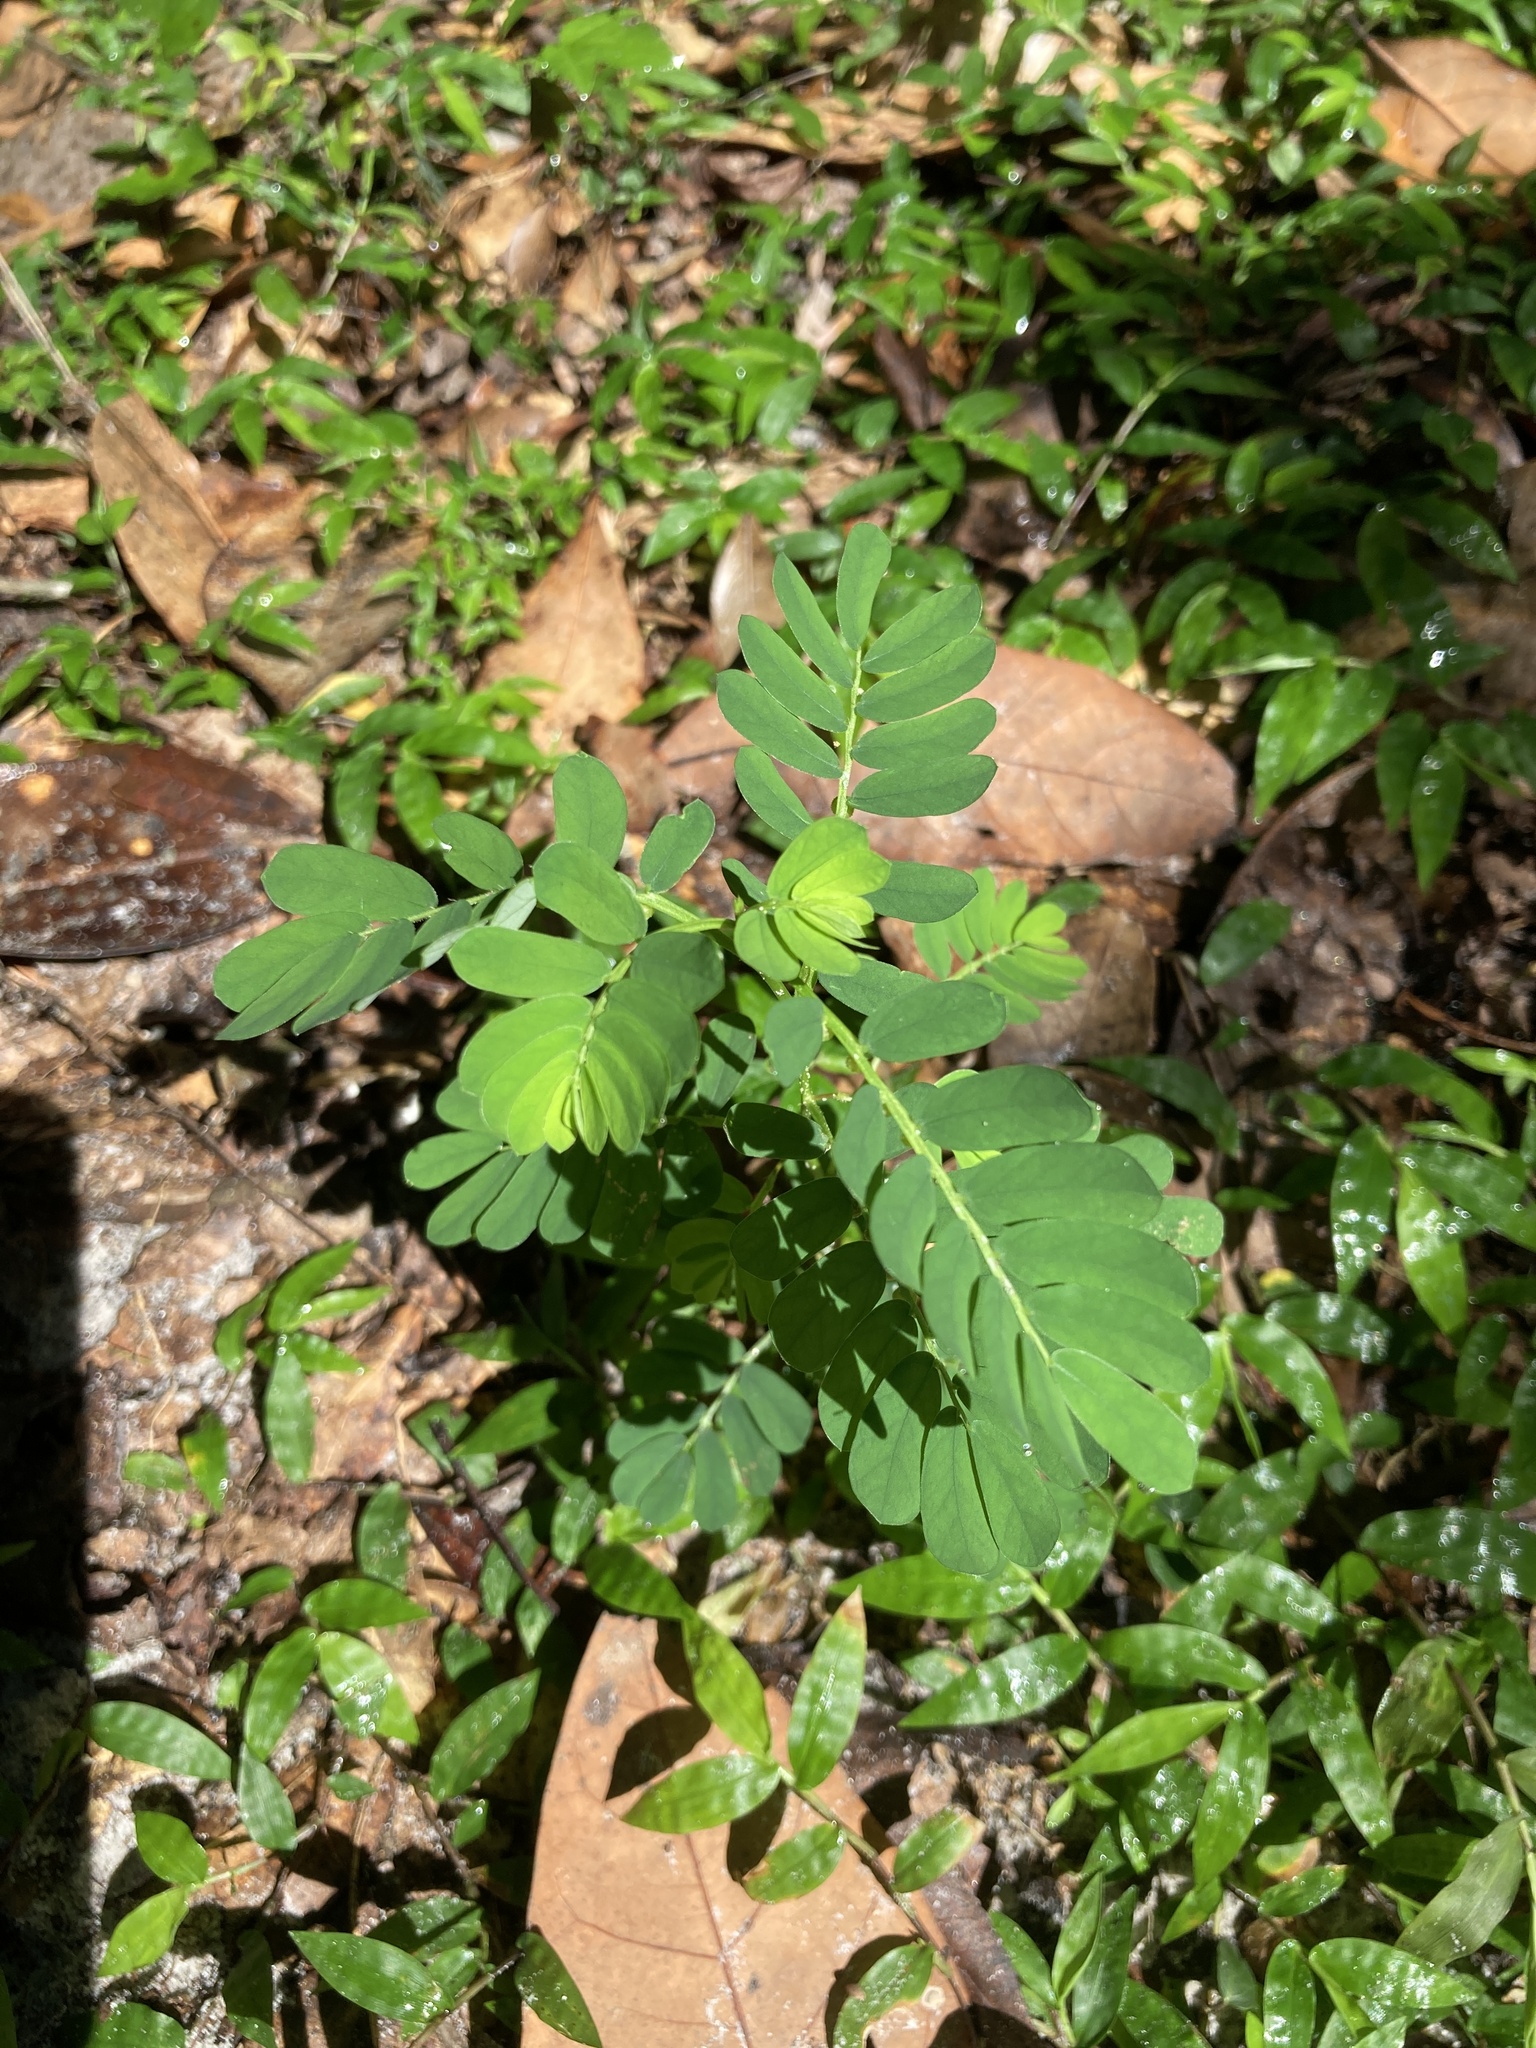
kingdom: Plantae
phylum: Tracheophyta
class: Magnoliopsida
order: Malpighiales
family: Phyllanthaceae
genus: Phyllanthus
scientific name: Phyllanthus urinaria
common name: Chamber bitter
